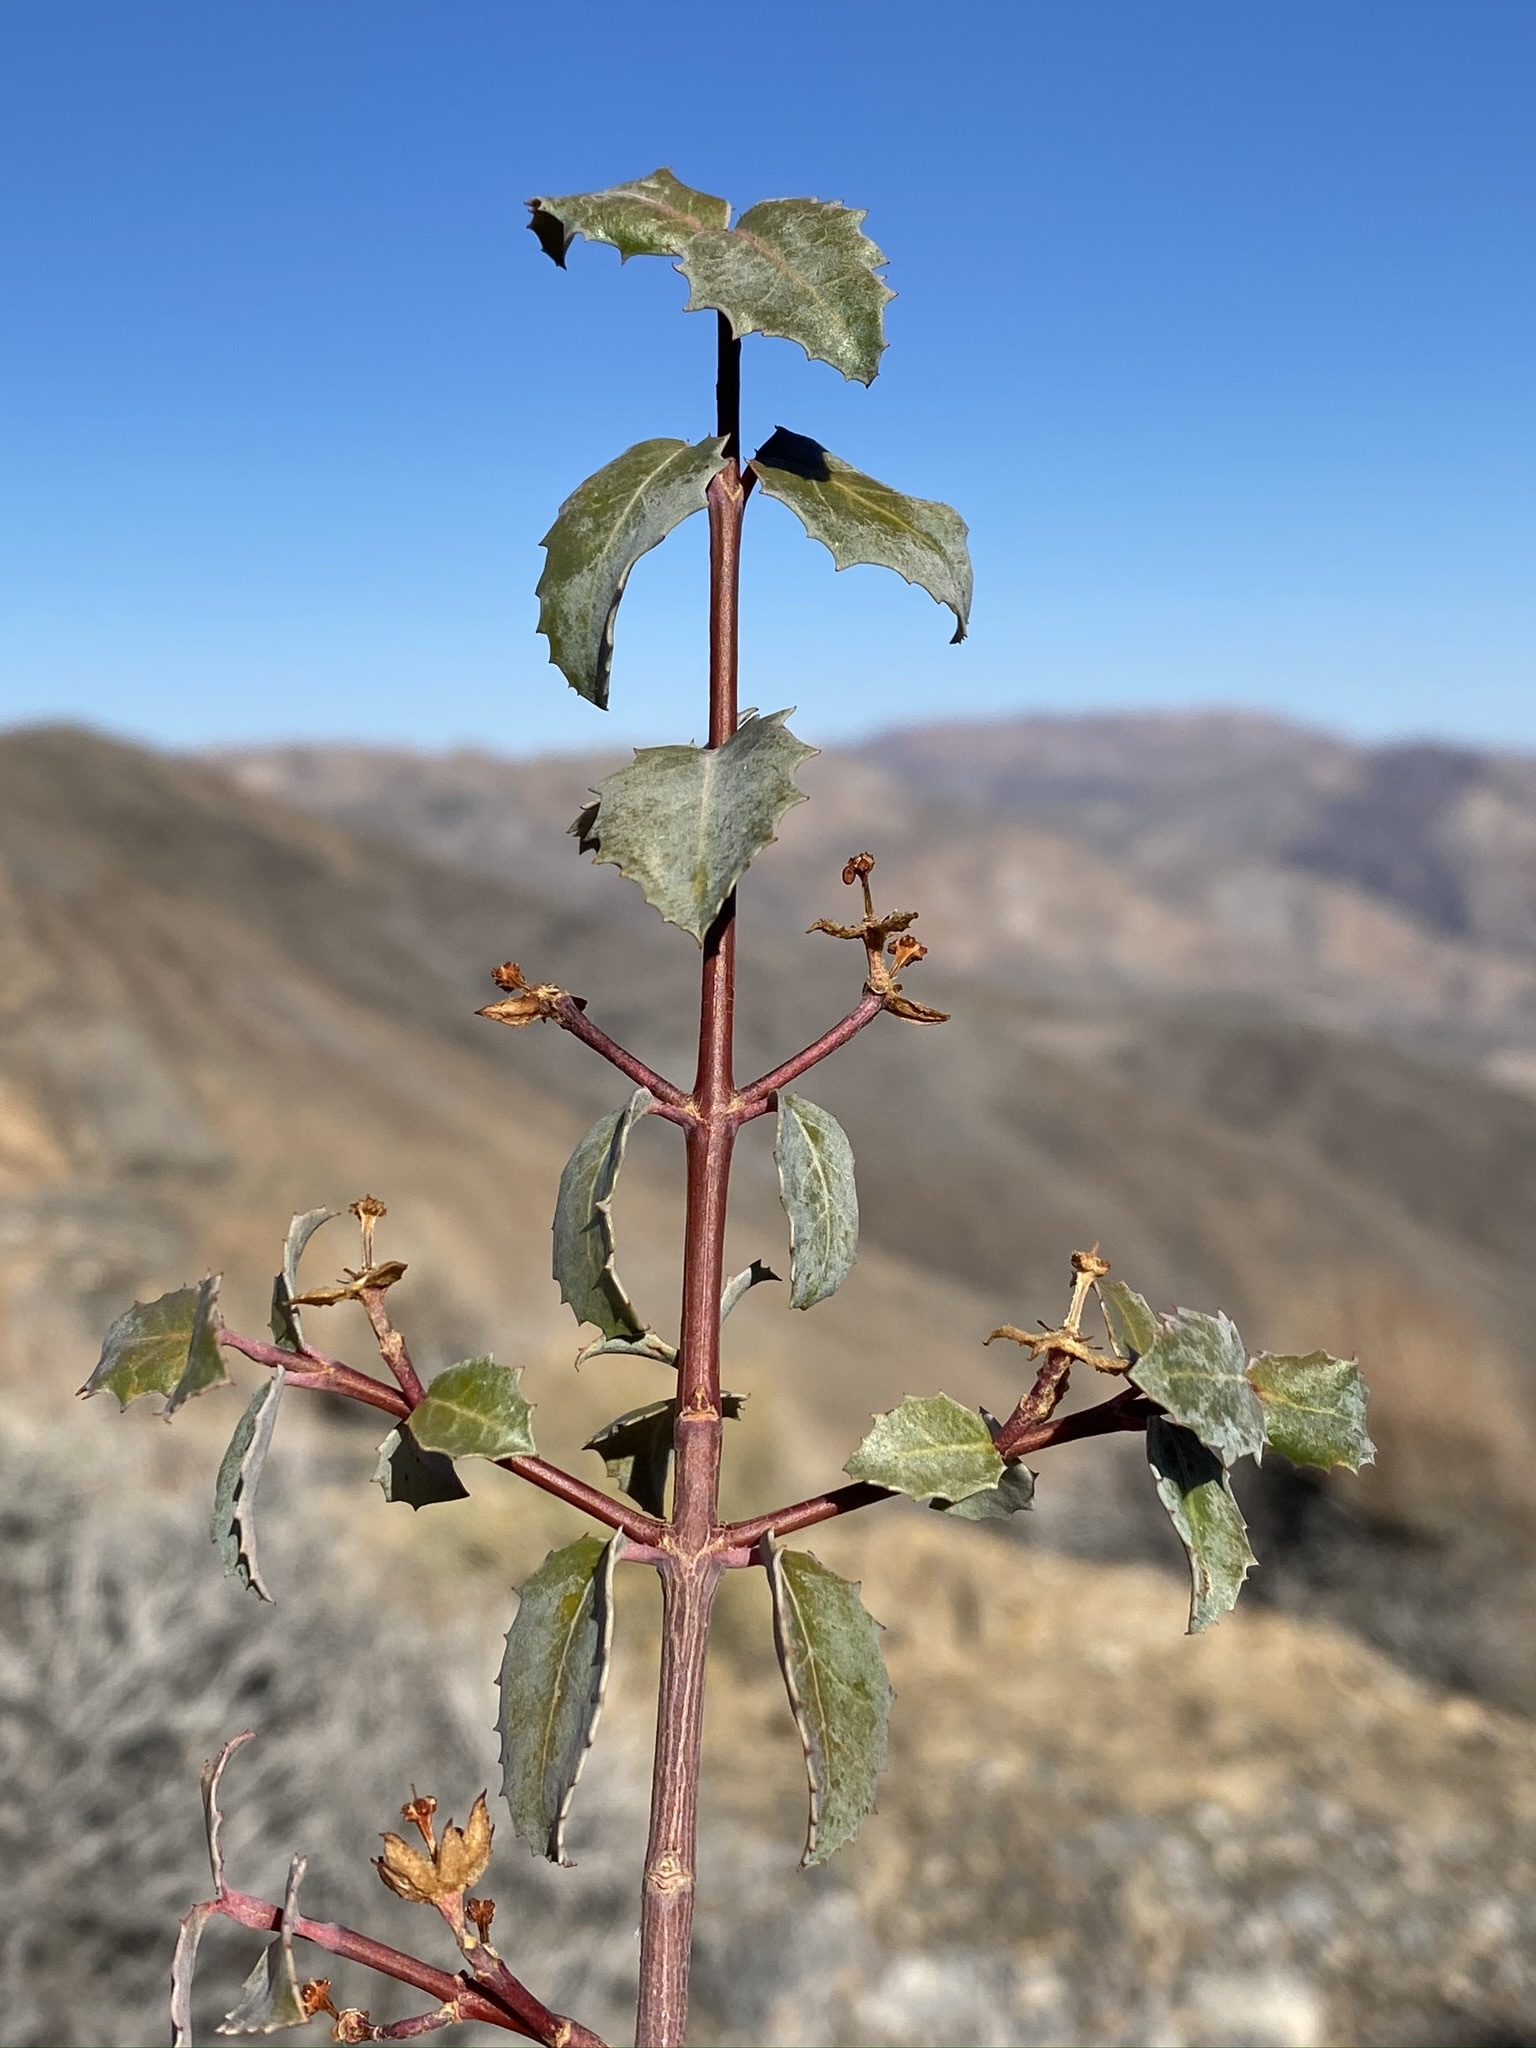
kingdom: Plantae
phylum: Tracheophyta
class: Magnoliopsida
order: Malpighiales
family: Picrodendraceae
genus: Tetracoccus
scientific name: Tetracoccus ilicifolius
